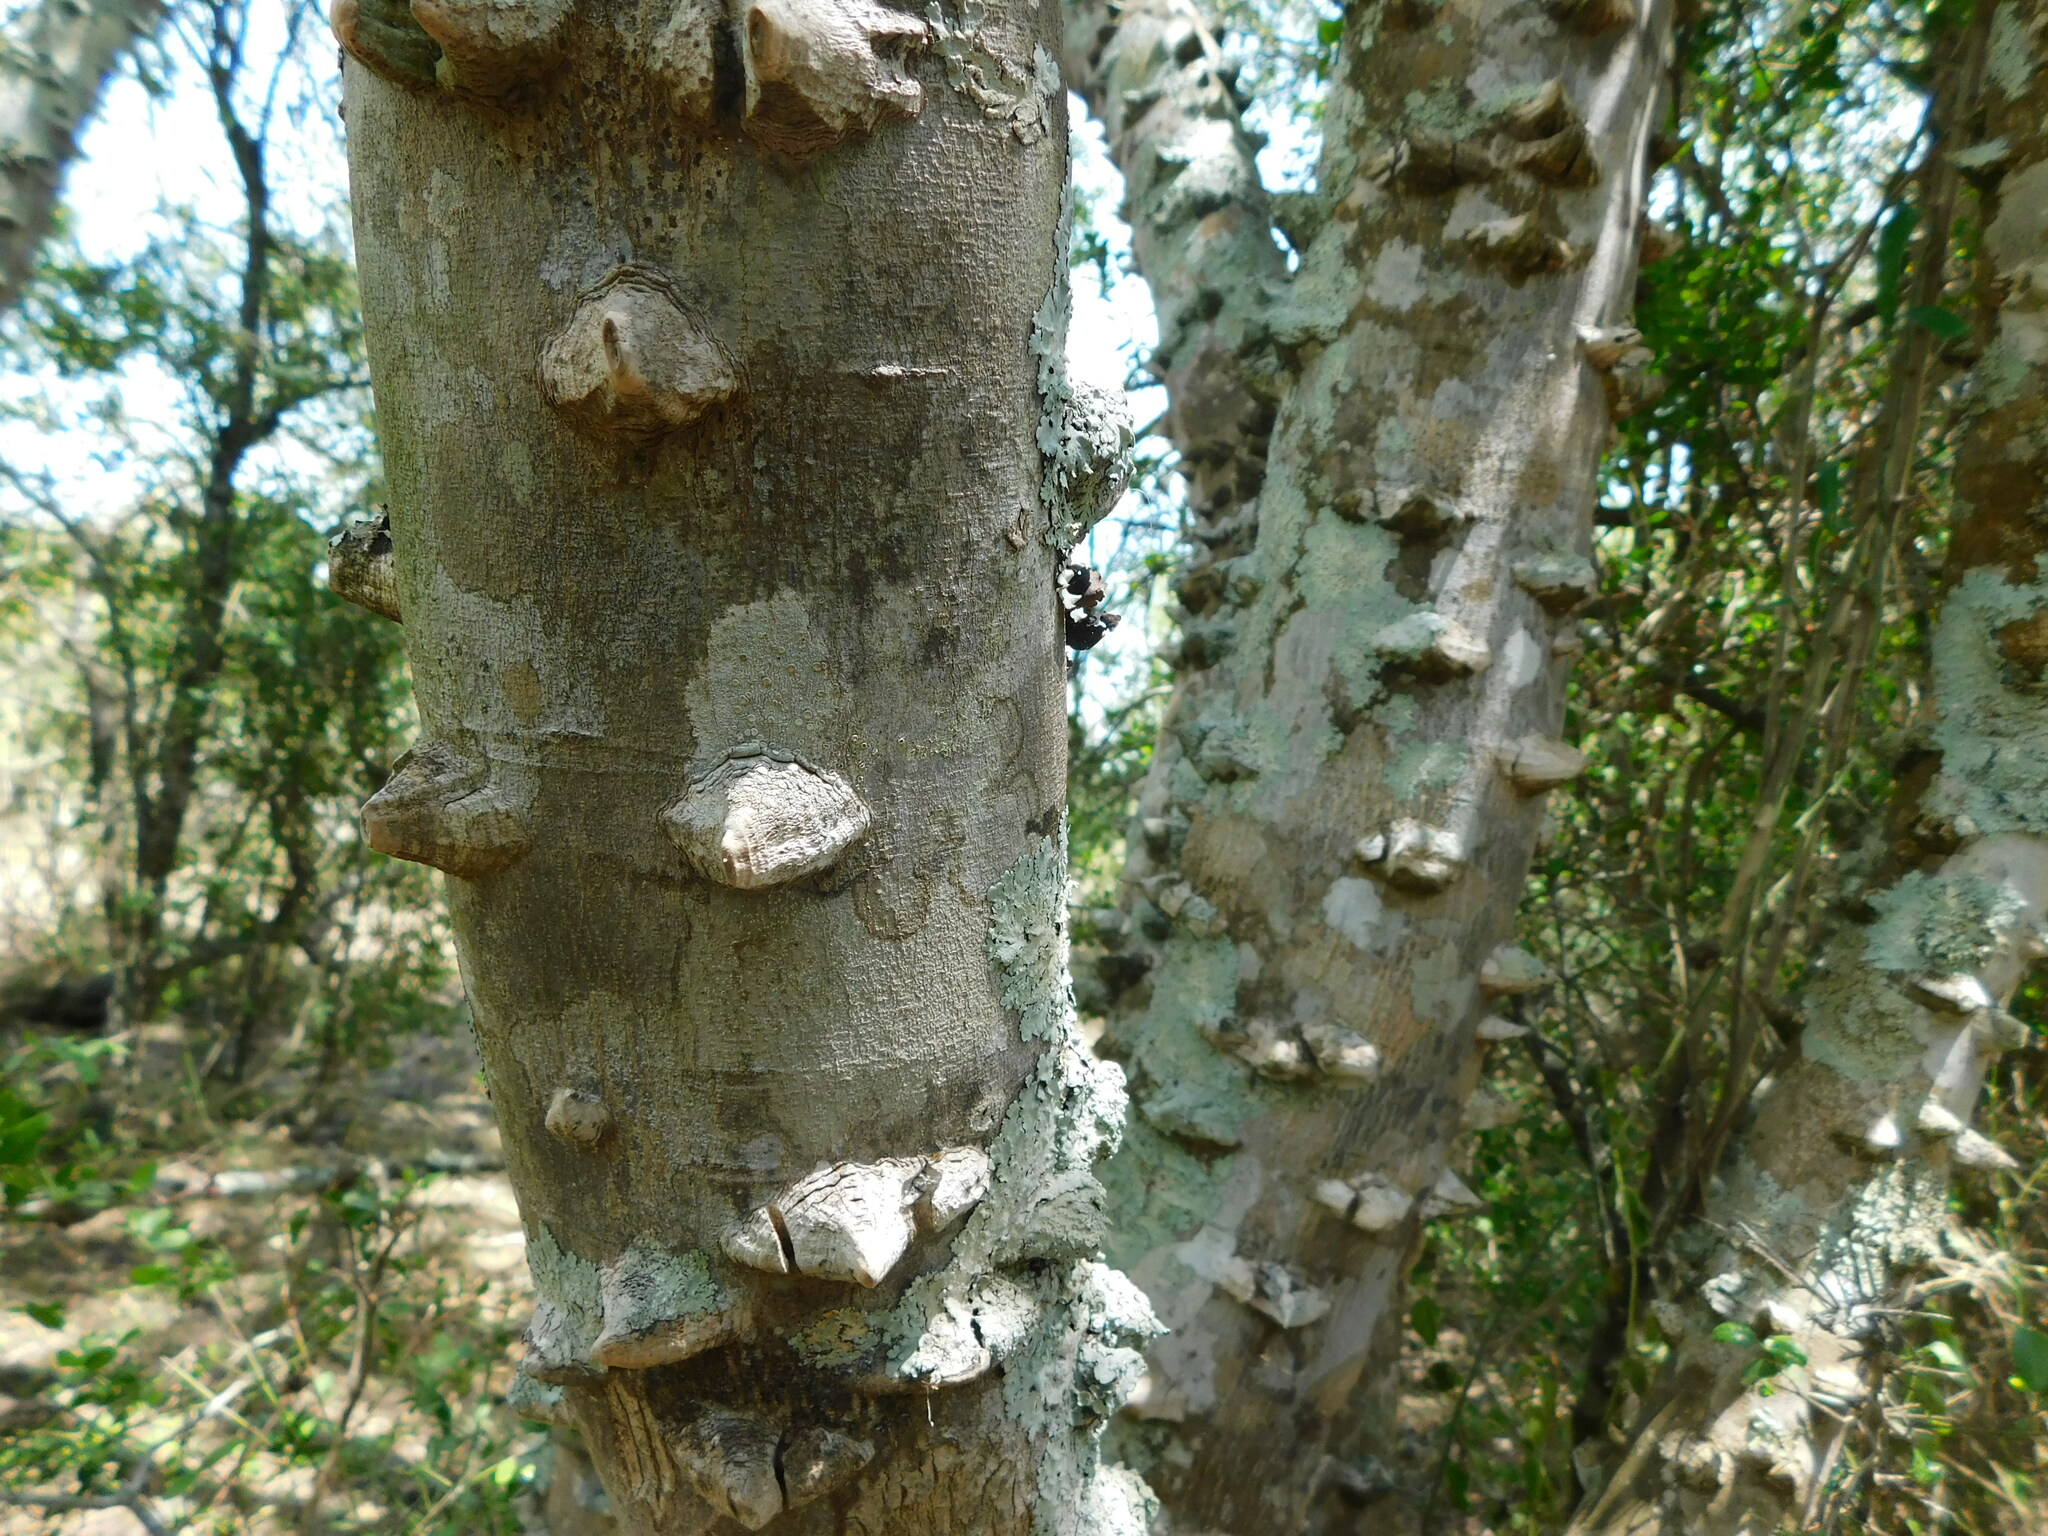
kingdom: Plantae
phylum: Tracheophyta
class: Magnoliopsida
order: Sapindales
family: Rutaceae
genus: Zanthoxylum
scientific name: Zanthoxylum rhoifolium
